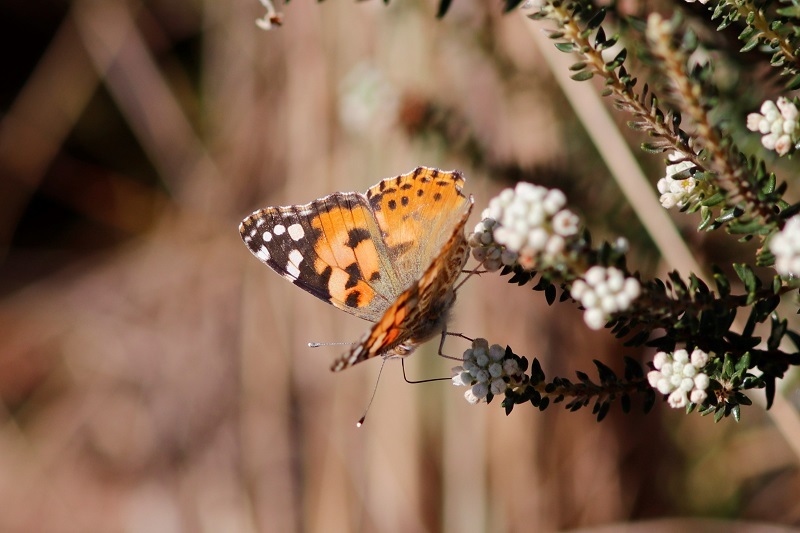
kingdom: Animalia
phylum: Arthropoda
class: Insecta
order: Lepidoptera
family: Nymphalidae
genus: Vanessa
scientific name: Vanessa cardui
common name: Painted lady
